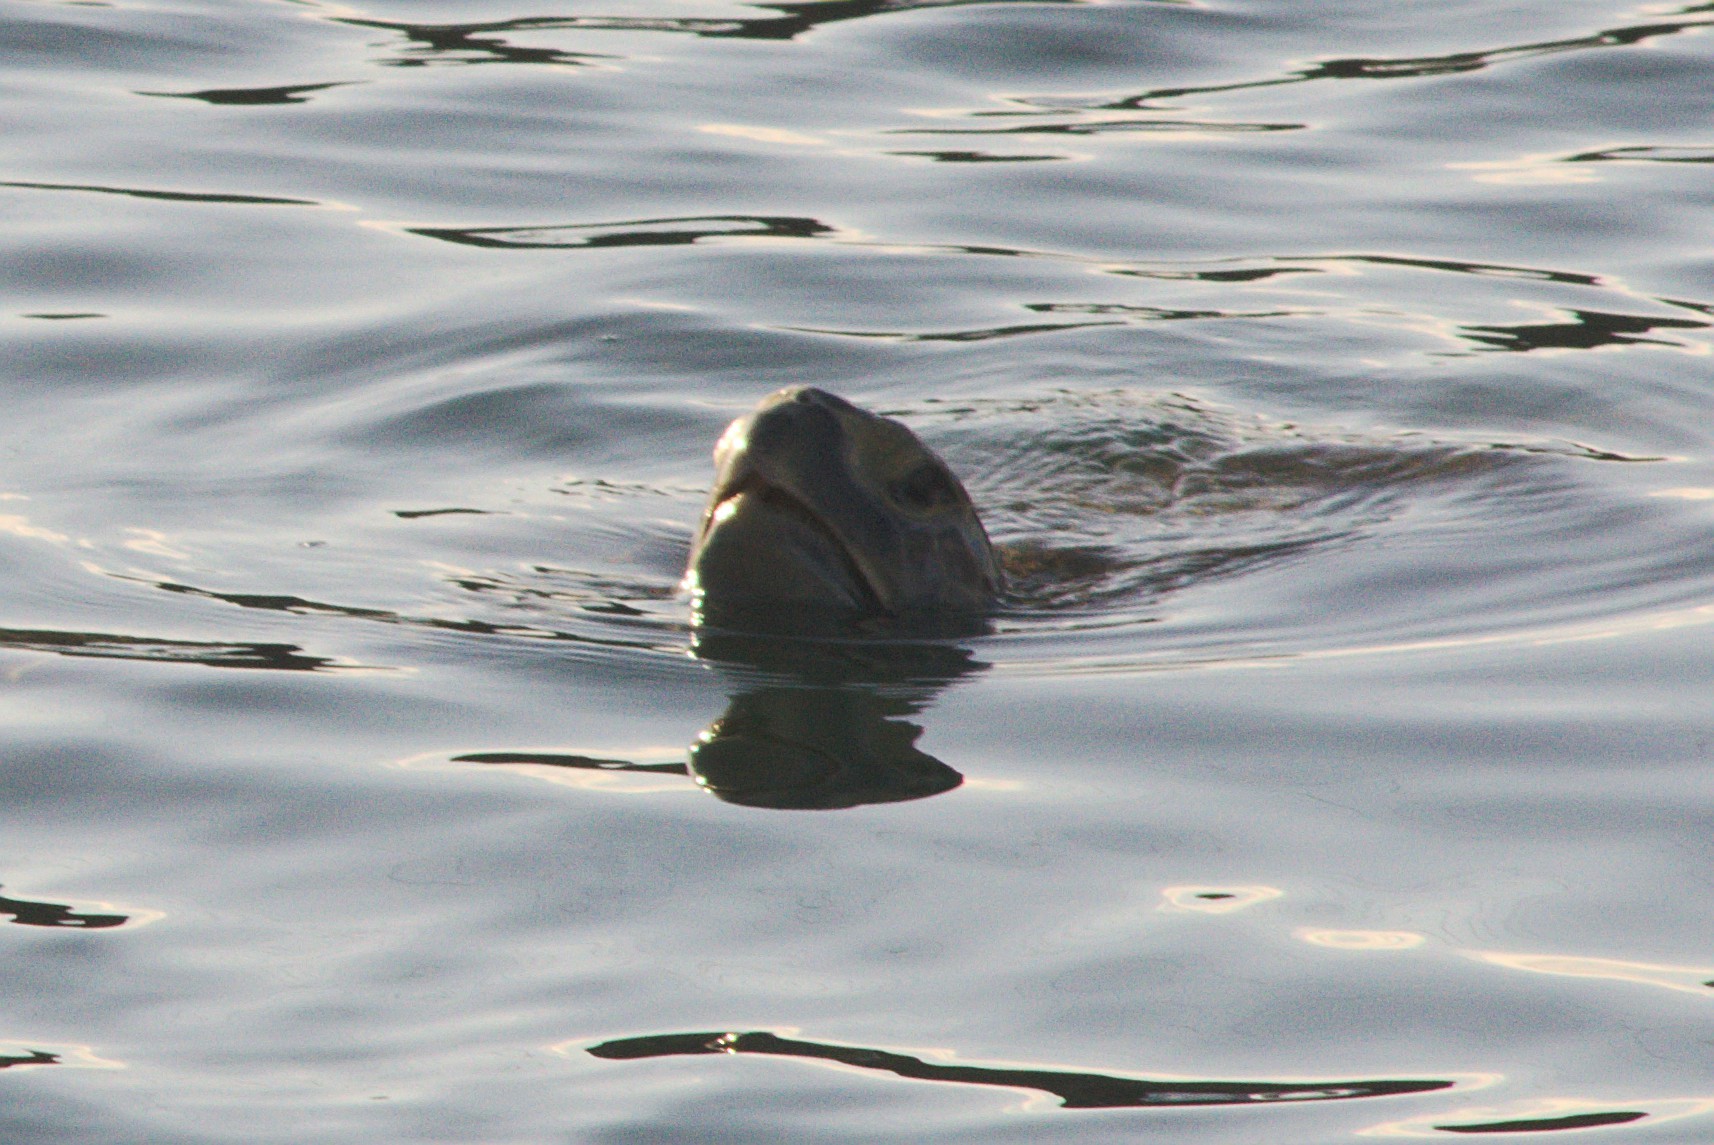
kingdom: Animalia
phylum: Chordata
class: Testudines
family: Cheloniidae
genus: Chelonia
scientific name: Chelonia mydas
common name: Green turtle
